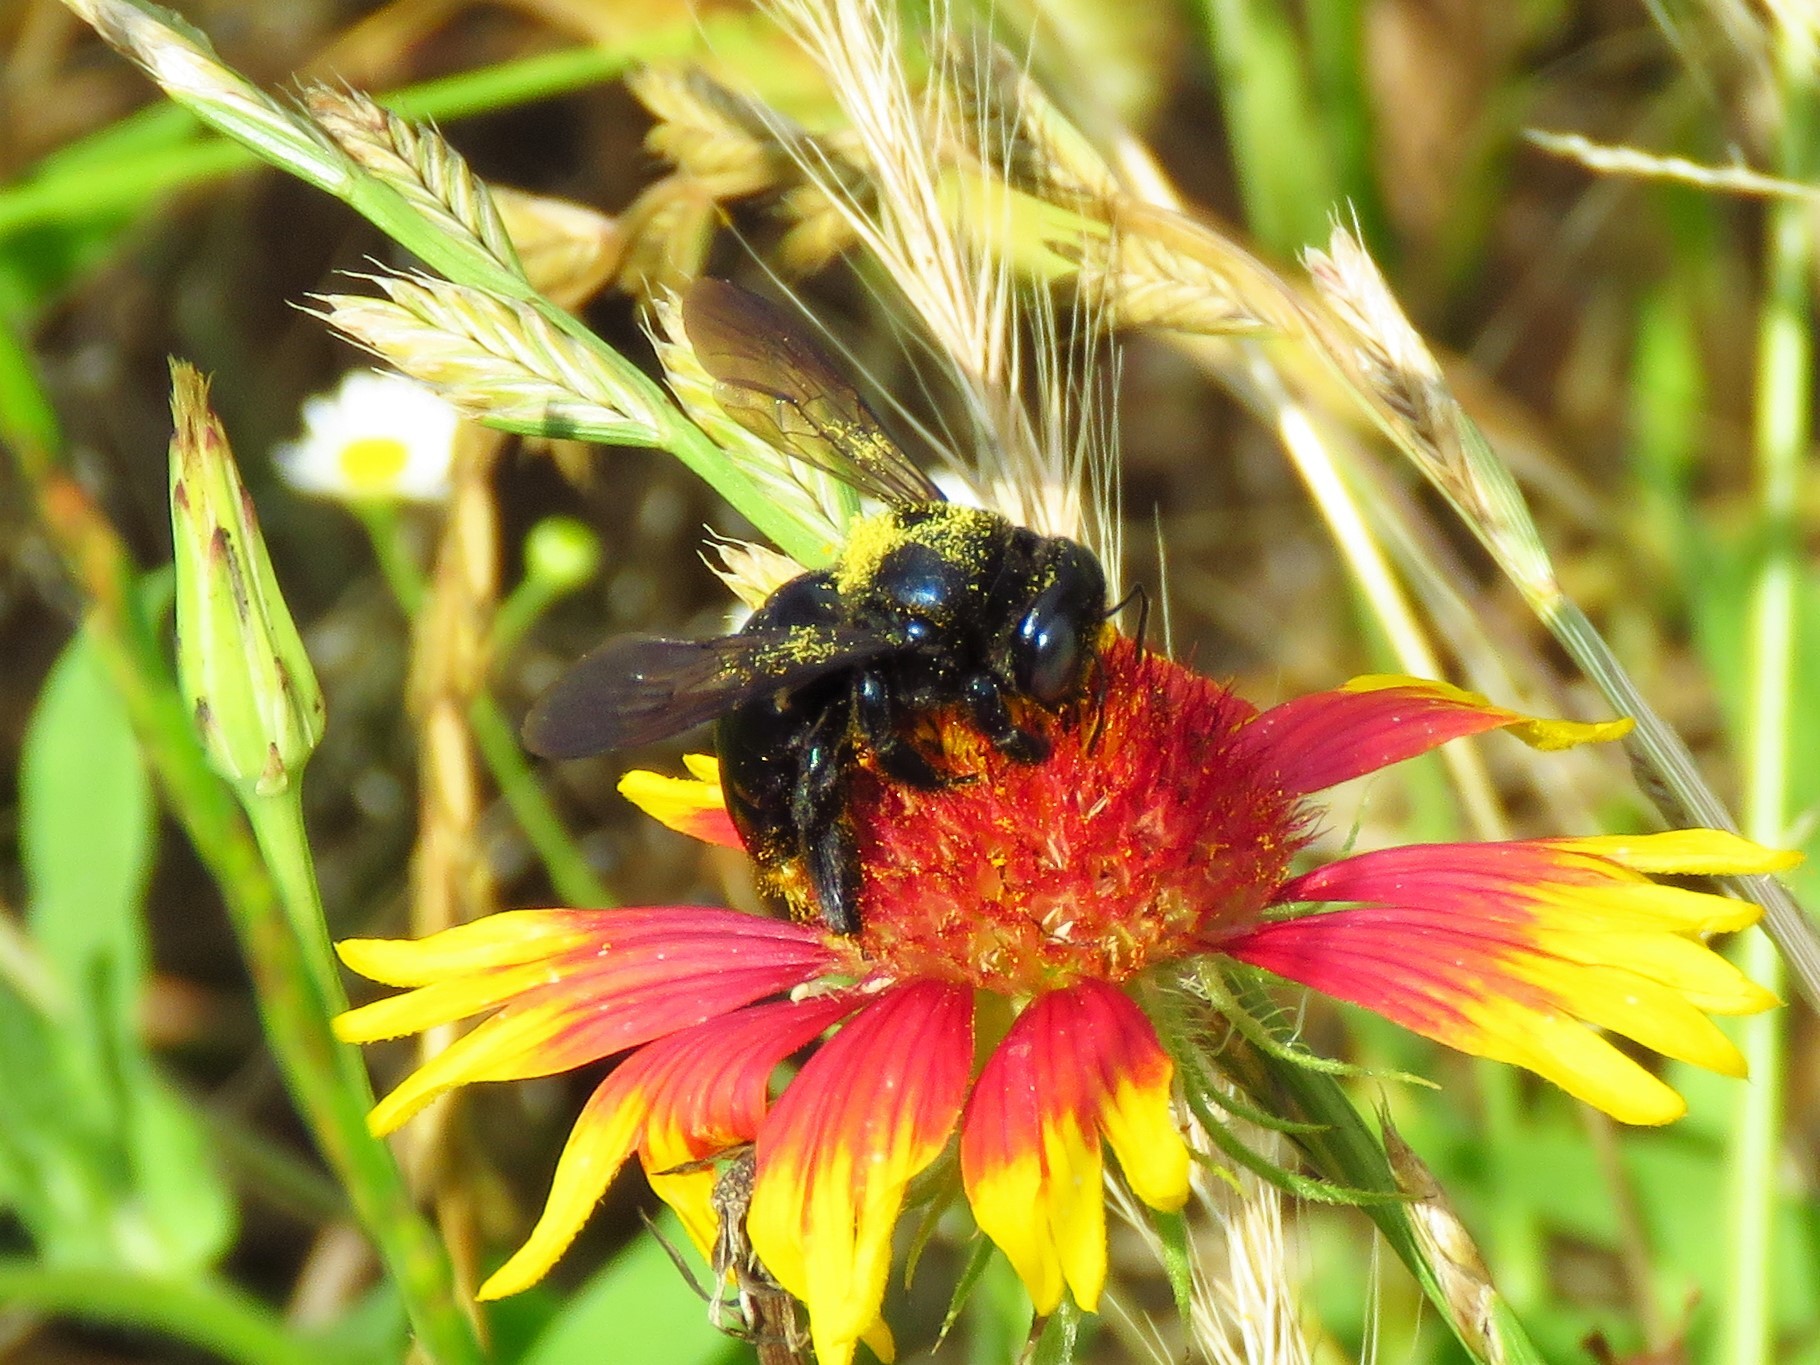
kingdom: Animalia
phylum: Arthropoda
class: Insecta
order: Hymenoptera
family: Apidae
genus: Xylocopa
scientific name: Xylocopa micans
